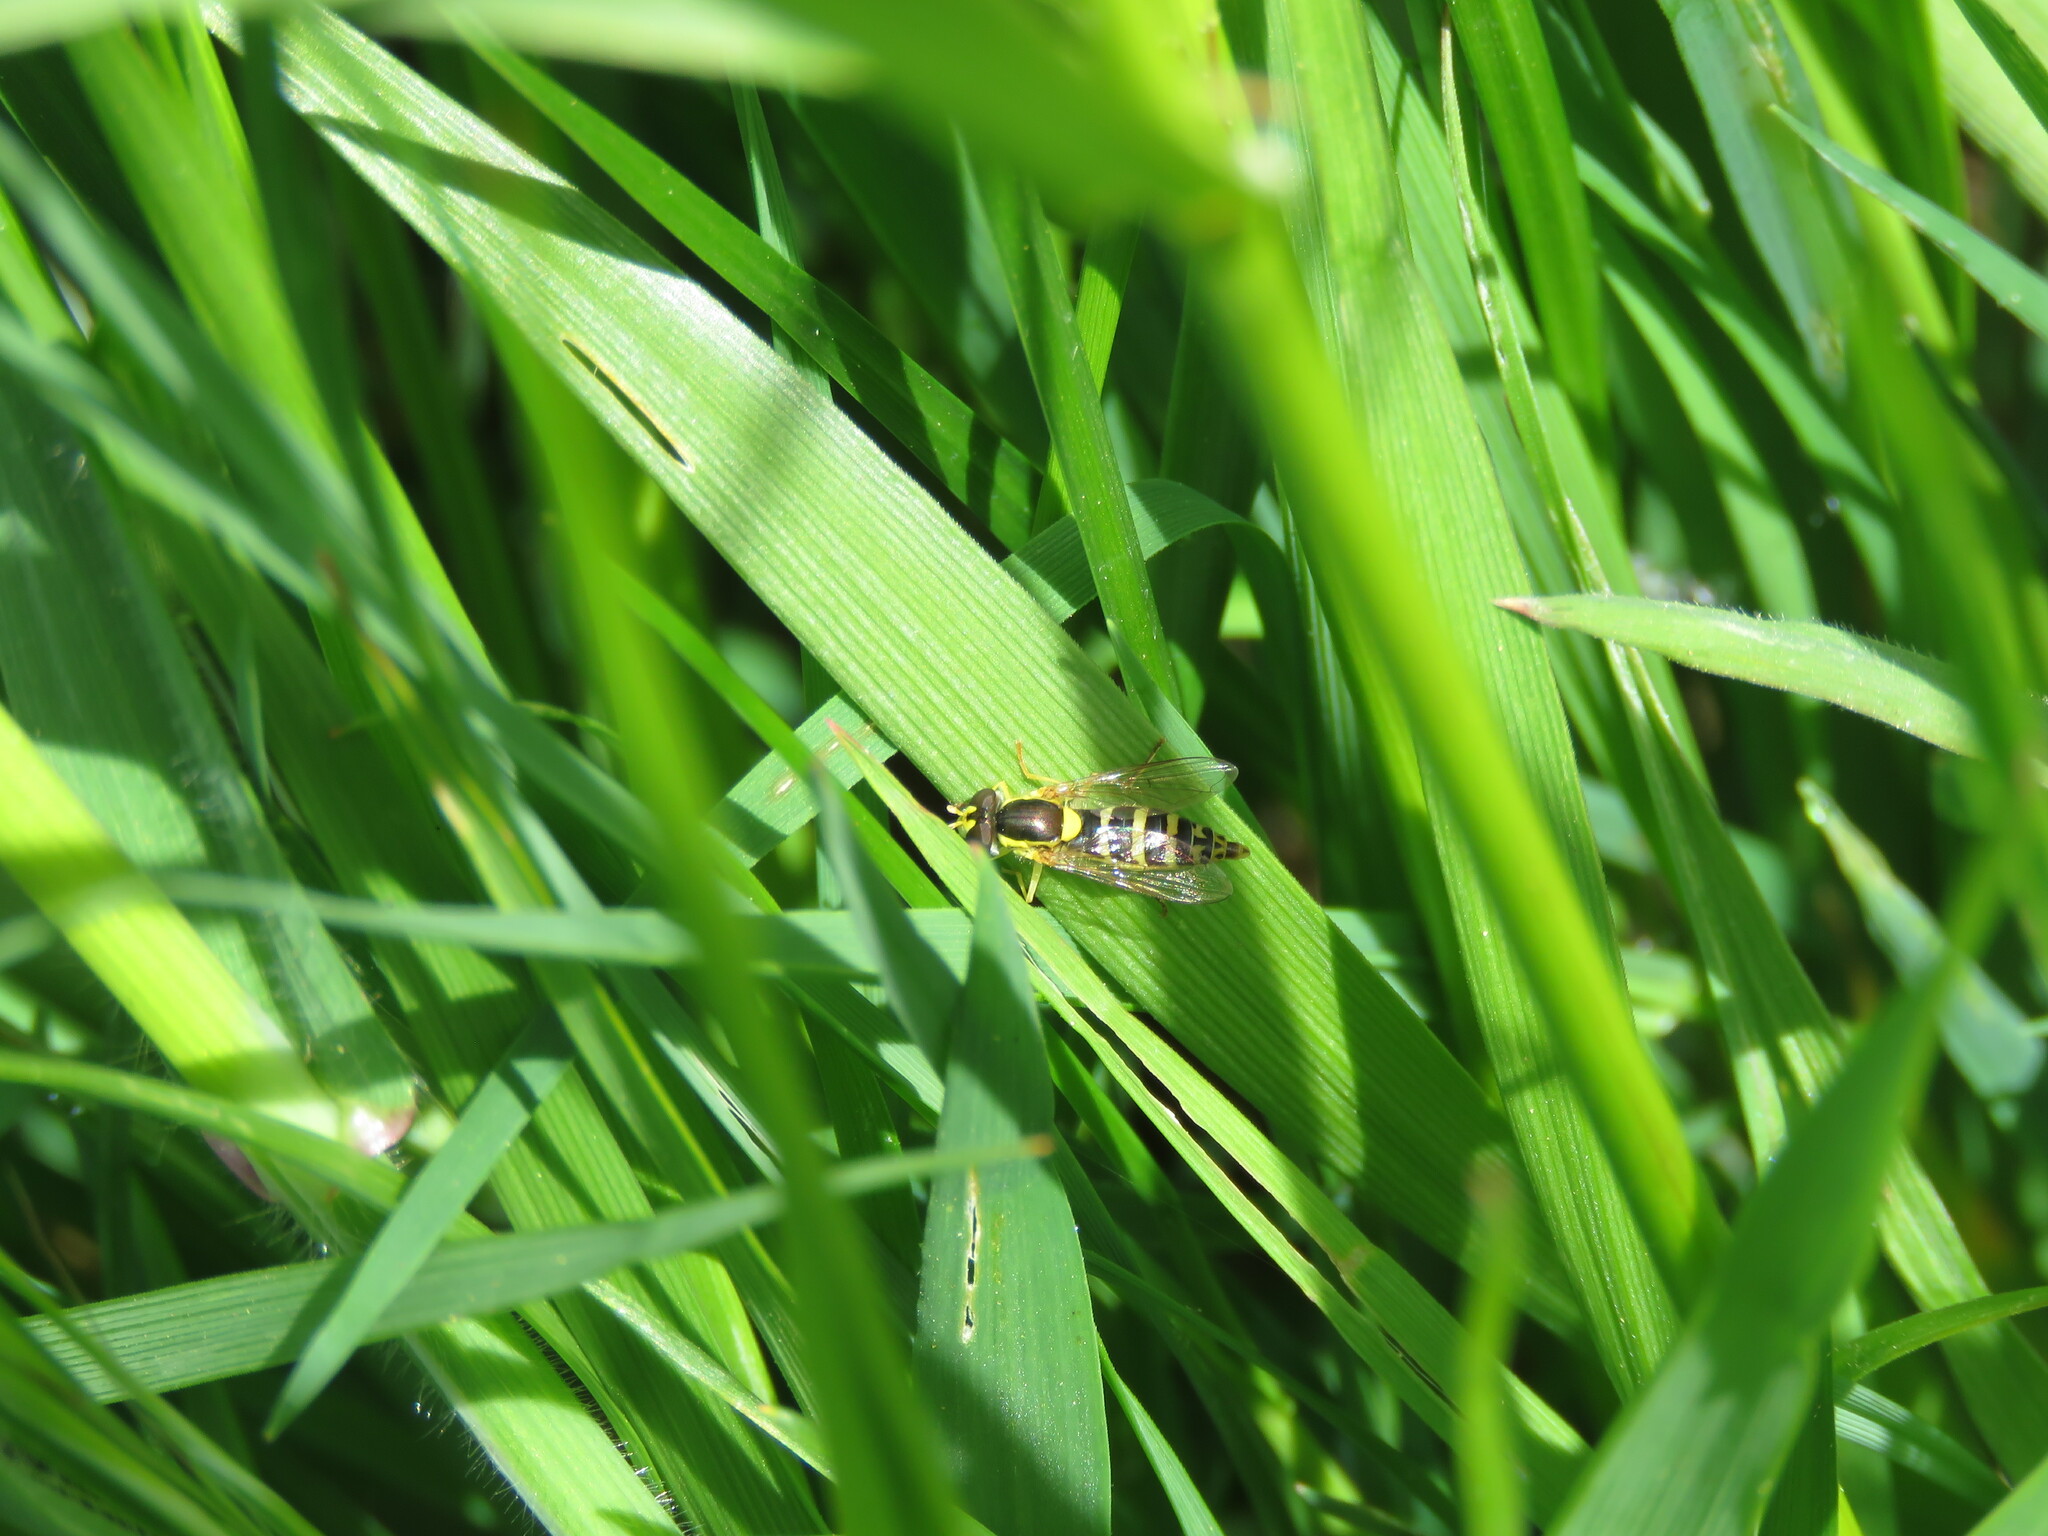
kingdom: Animalia
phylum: Arthropoda
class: Insecta
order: Diptera
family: Syrphidae
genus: Sphaerophoria
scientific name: Sphaerophoria
